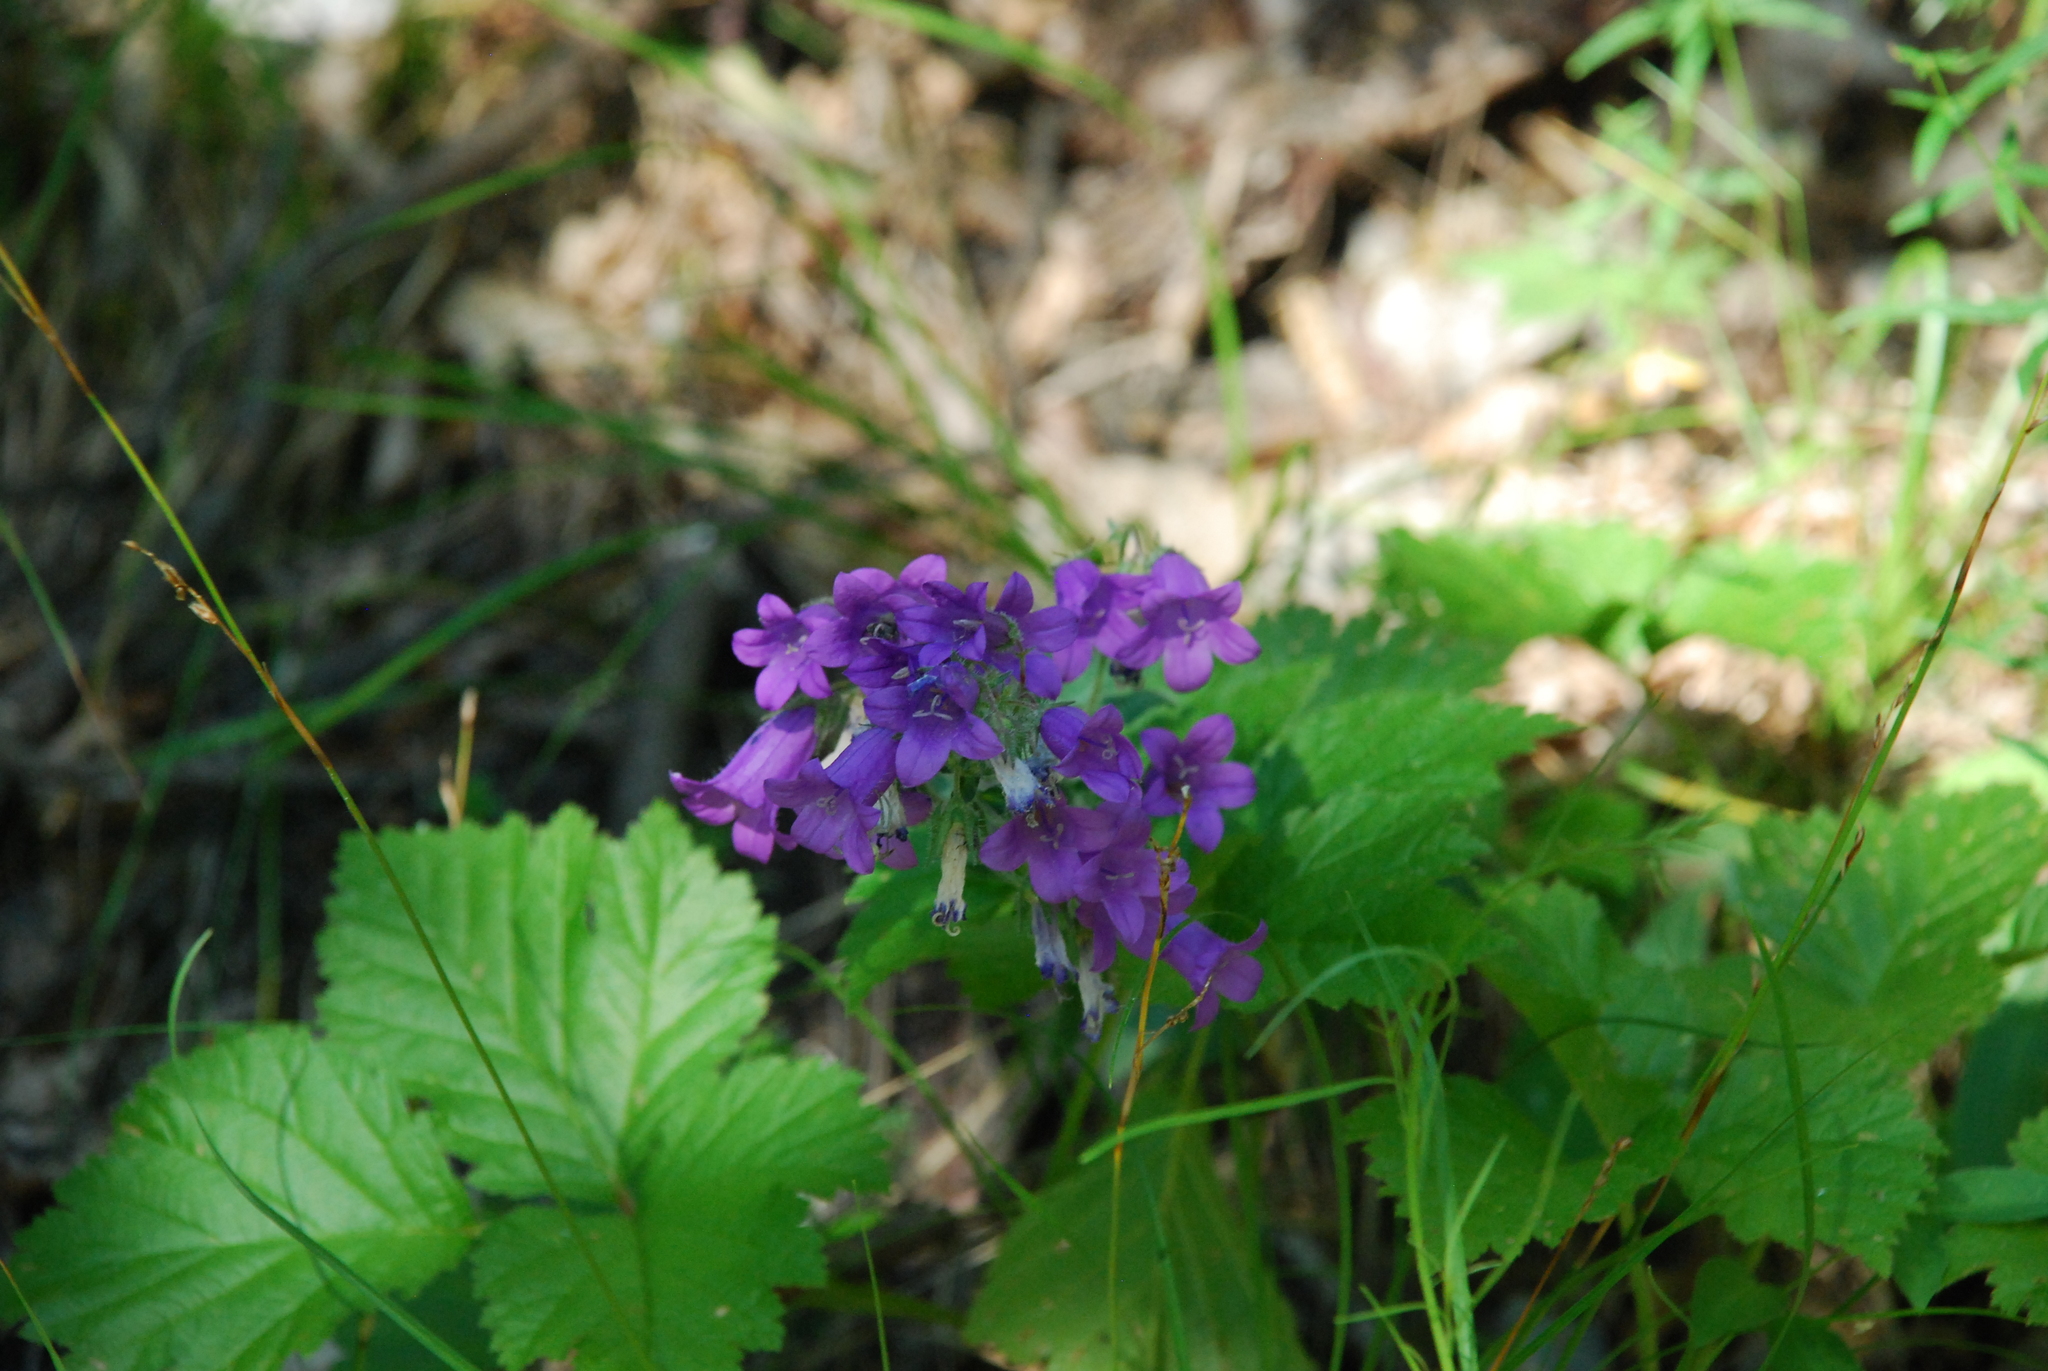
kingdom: Plantae
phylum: Tracheophyta
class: Magnoliopsida
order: Asterales
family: Campanulaceae
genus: Campanula
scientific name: Campanula sibirica
